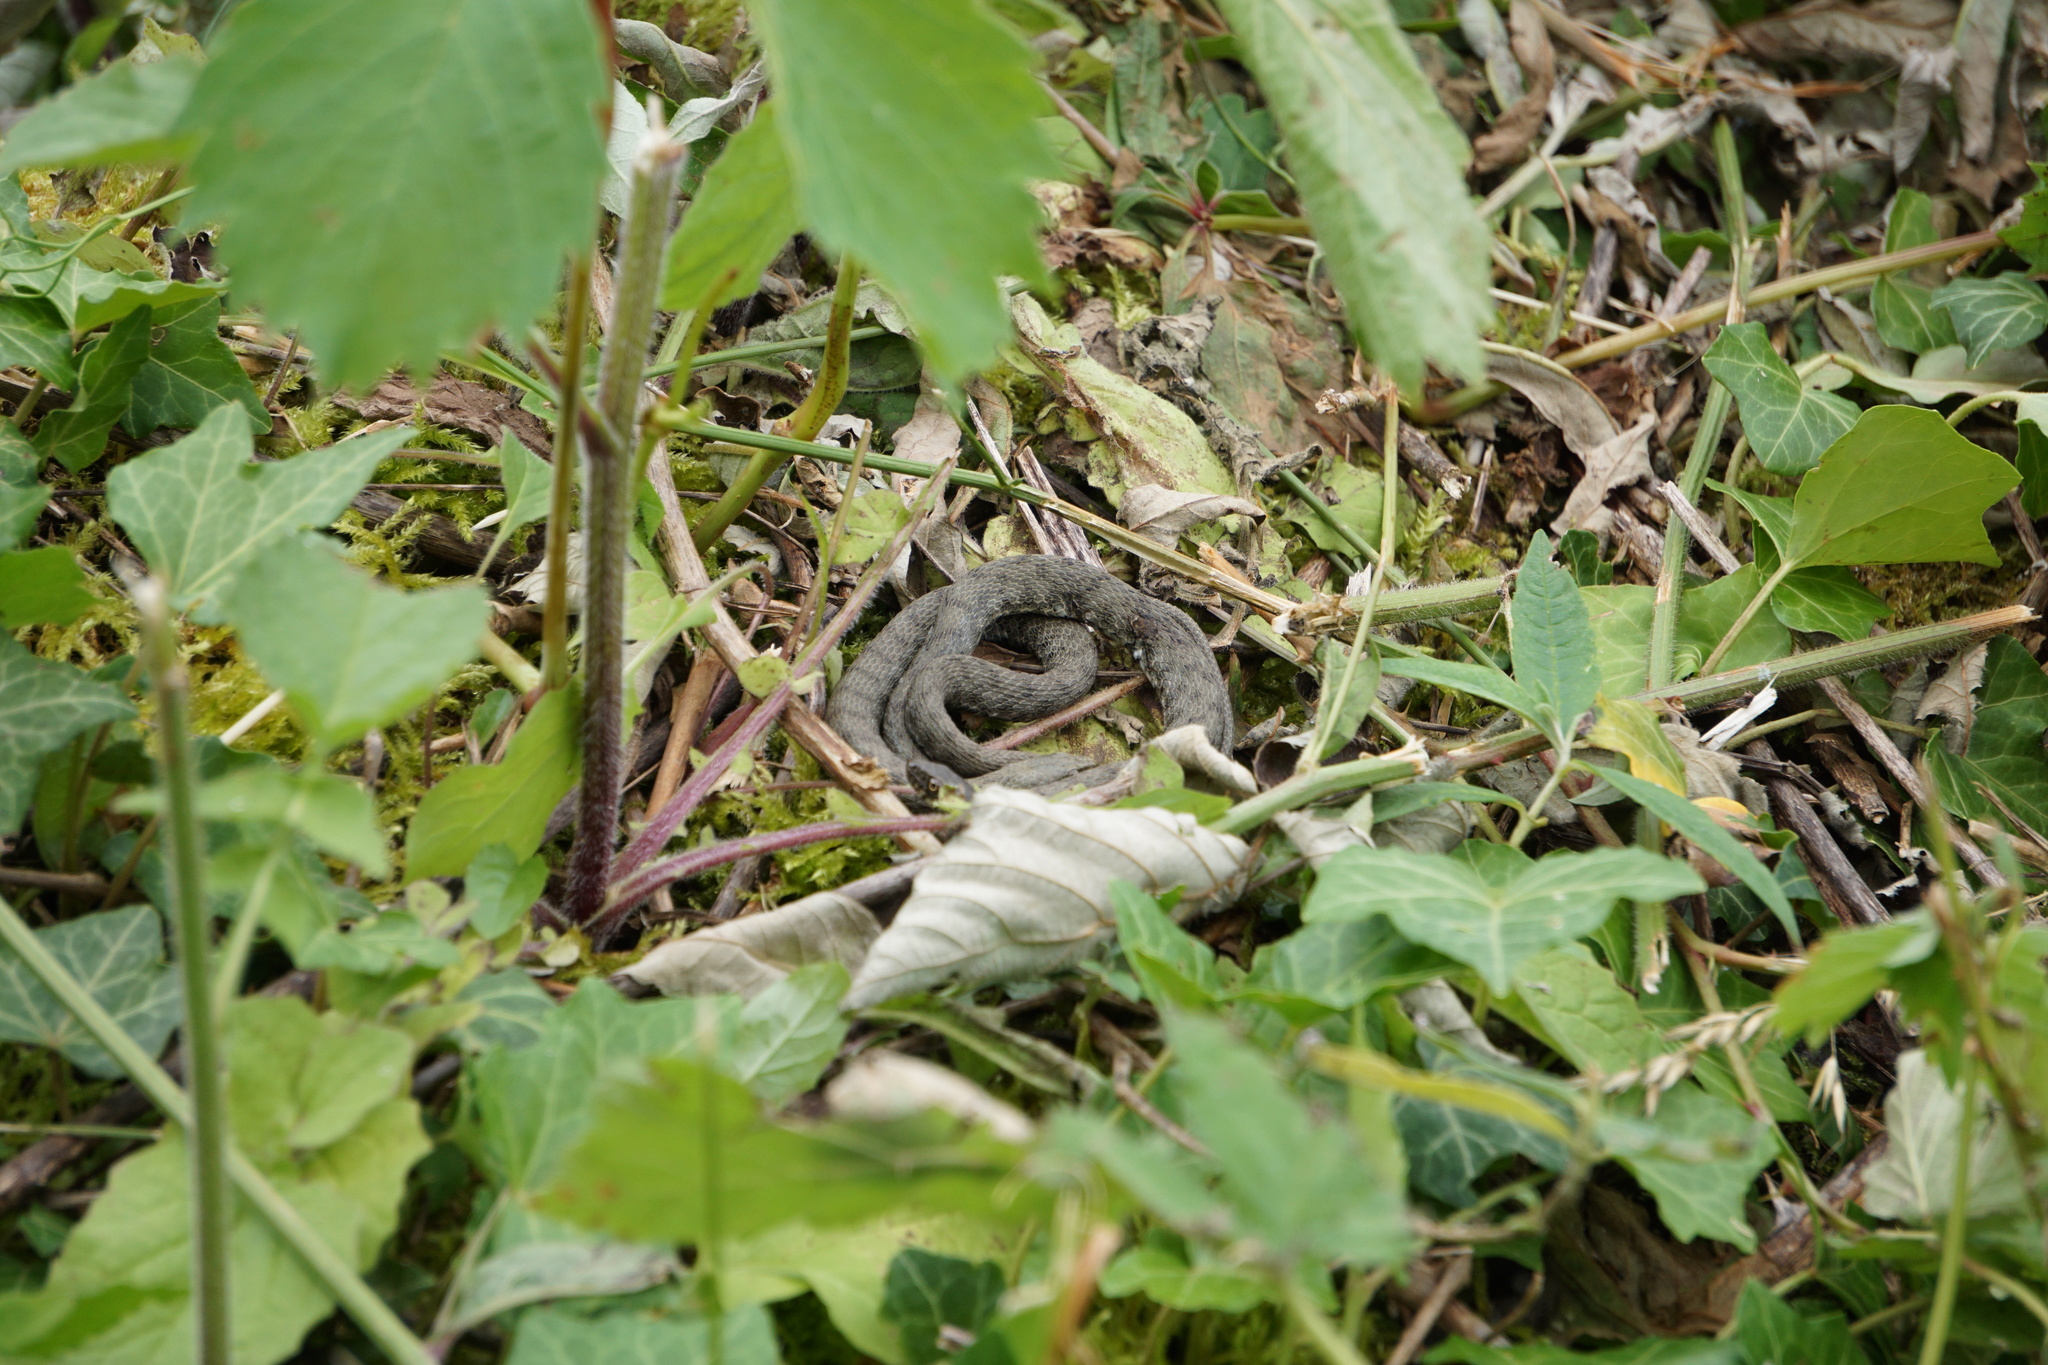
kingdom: Animalia
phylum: Chordata
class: Squamata
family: Colubridae
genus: Natrix
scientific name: Natrix tessellata
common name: Dice snake
